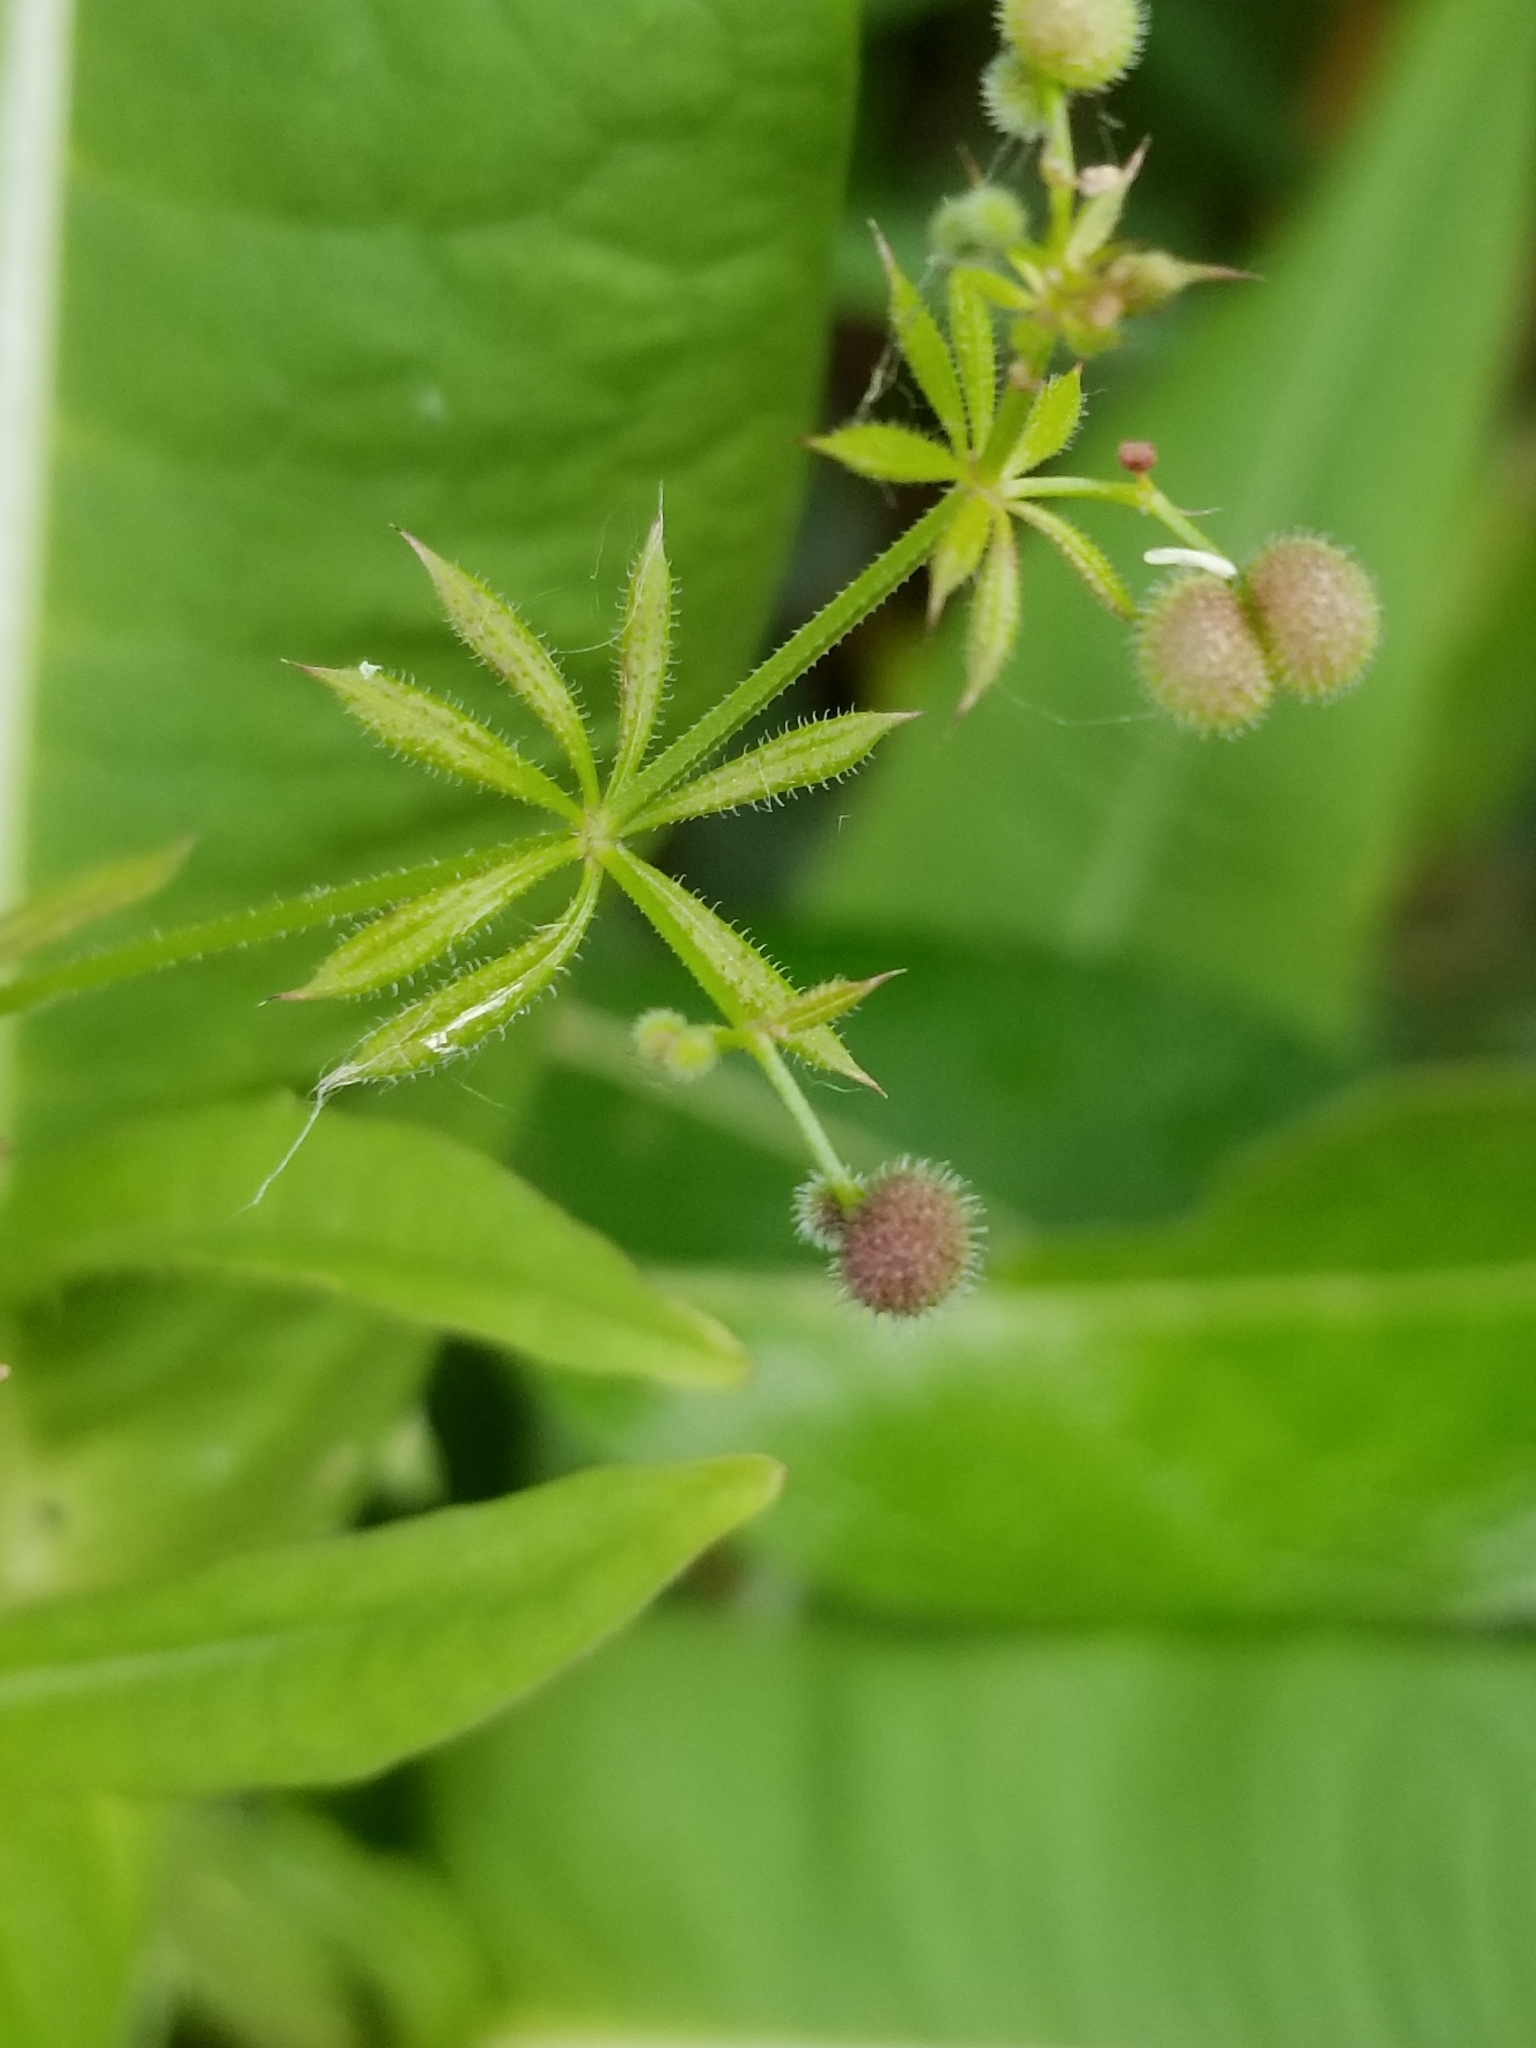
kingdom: Plantae
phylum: Tracheophyta
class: Magnoliopsida
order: Gentianales
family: Rubiaceae
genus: Galium
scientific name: Galium aparine
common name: Cleavers
